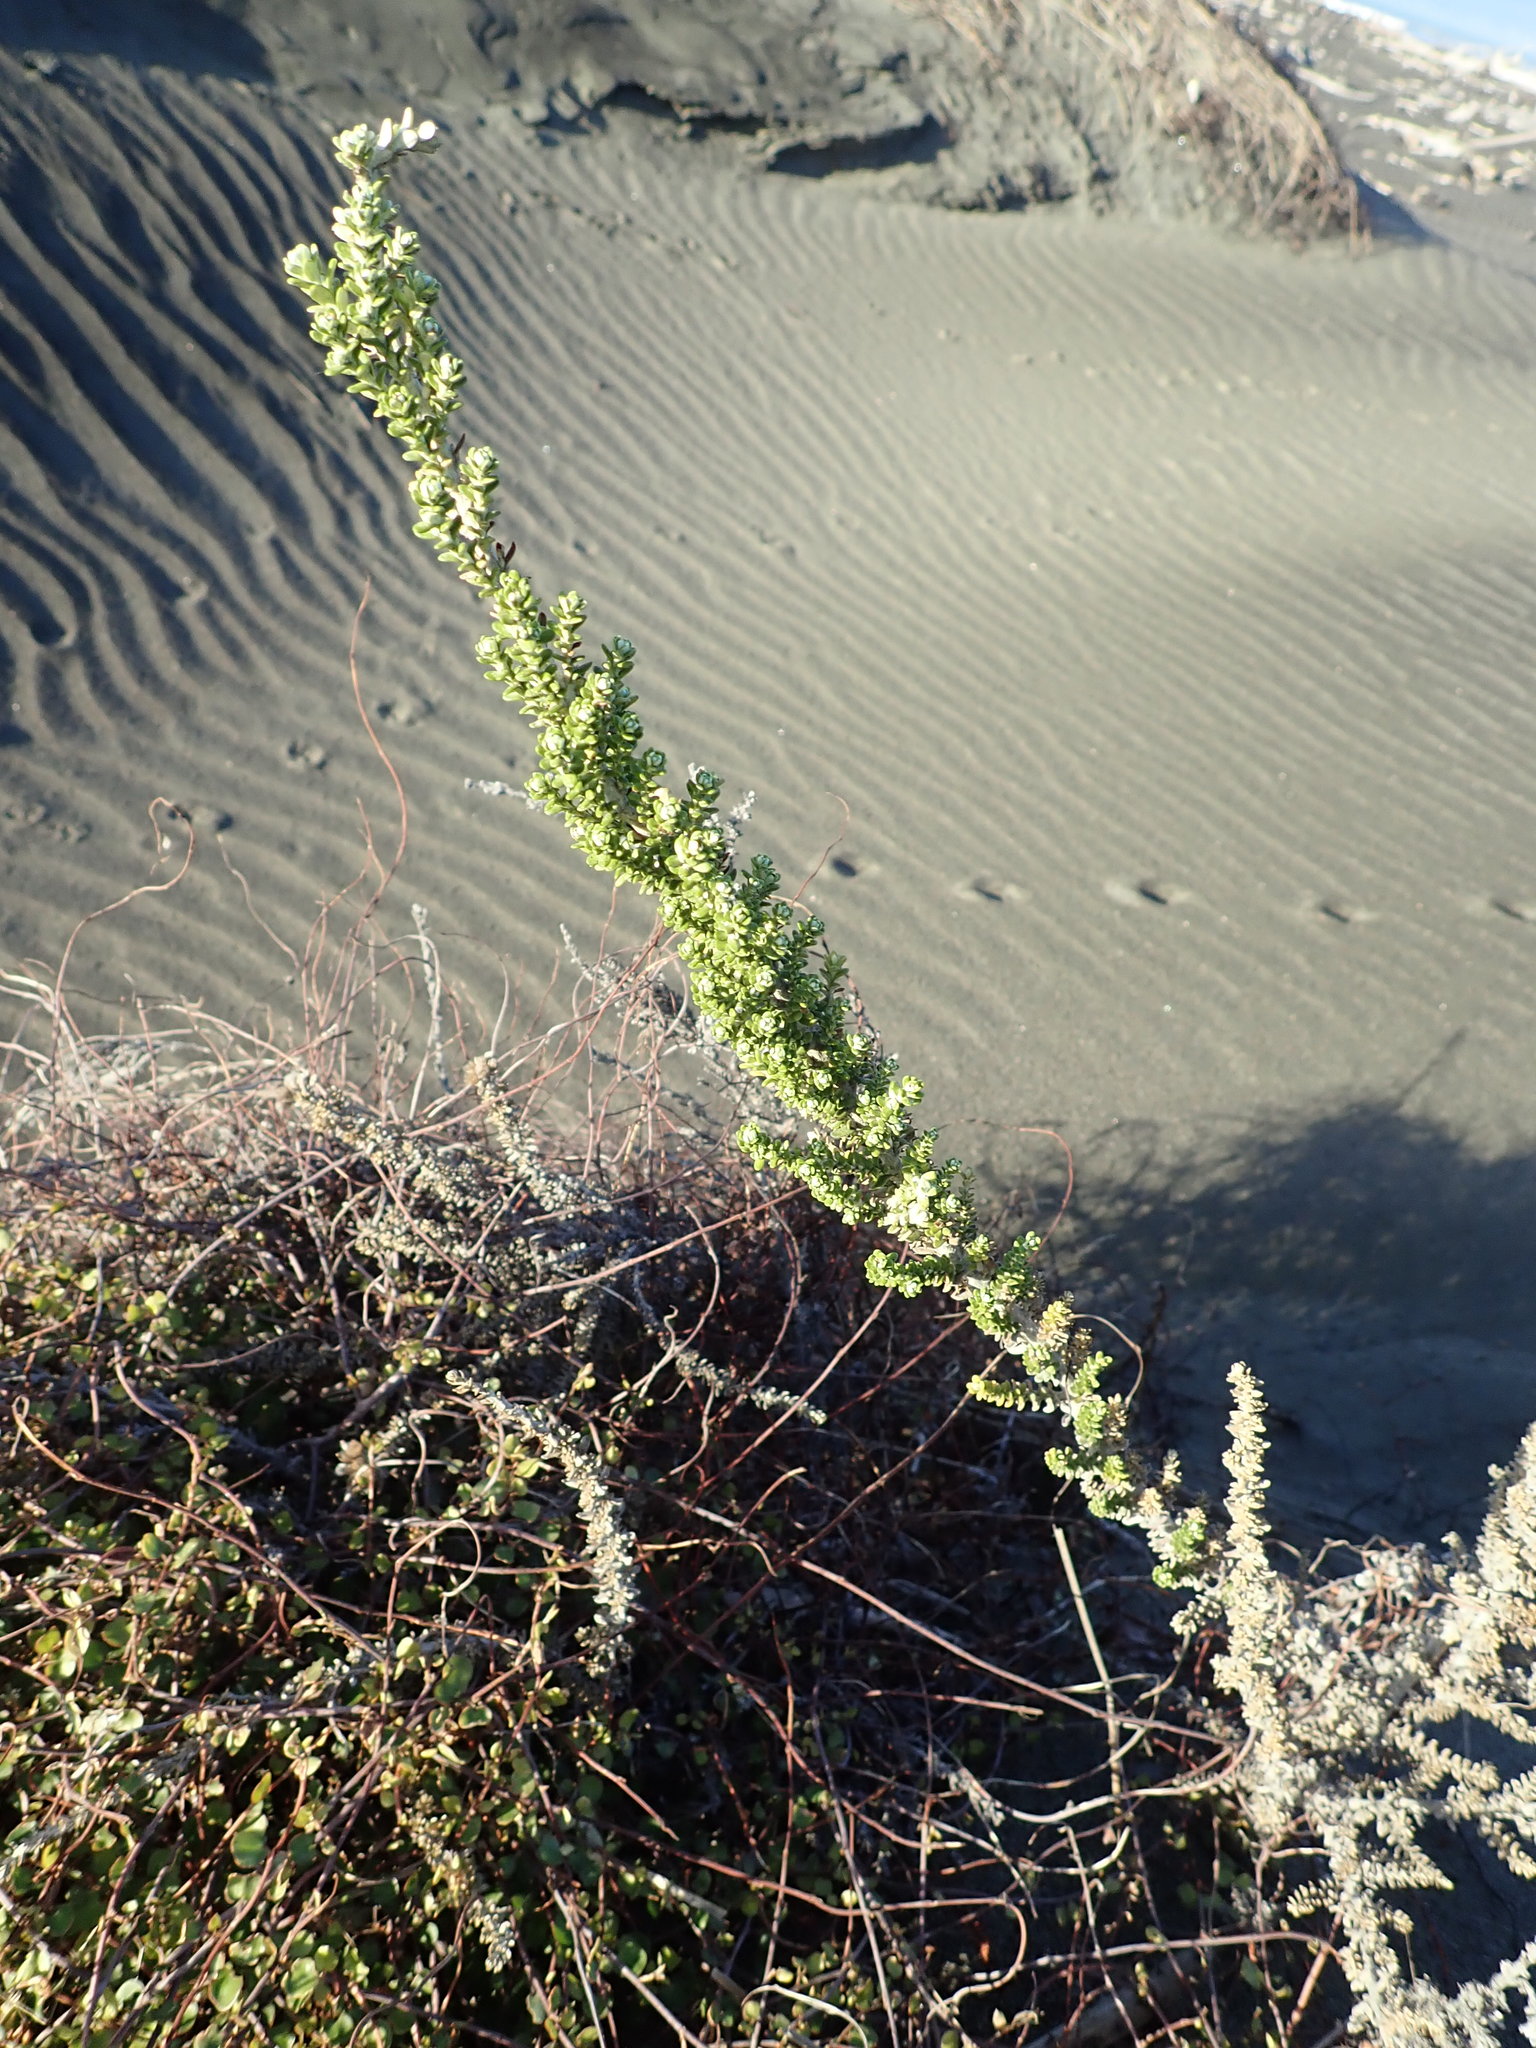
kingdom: Plantae
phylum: Tracheophyta
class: Magnoliopsida
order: Asterales
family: Asteraceae
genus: Ozothamnus
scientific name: Ozothamnus leptophyllus
